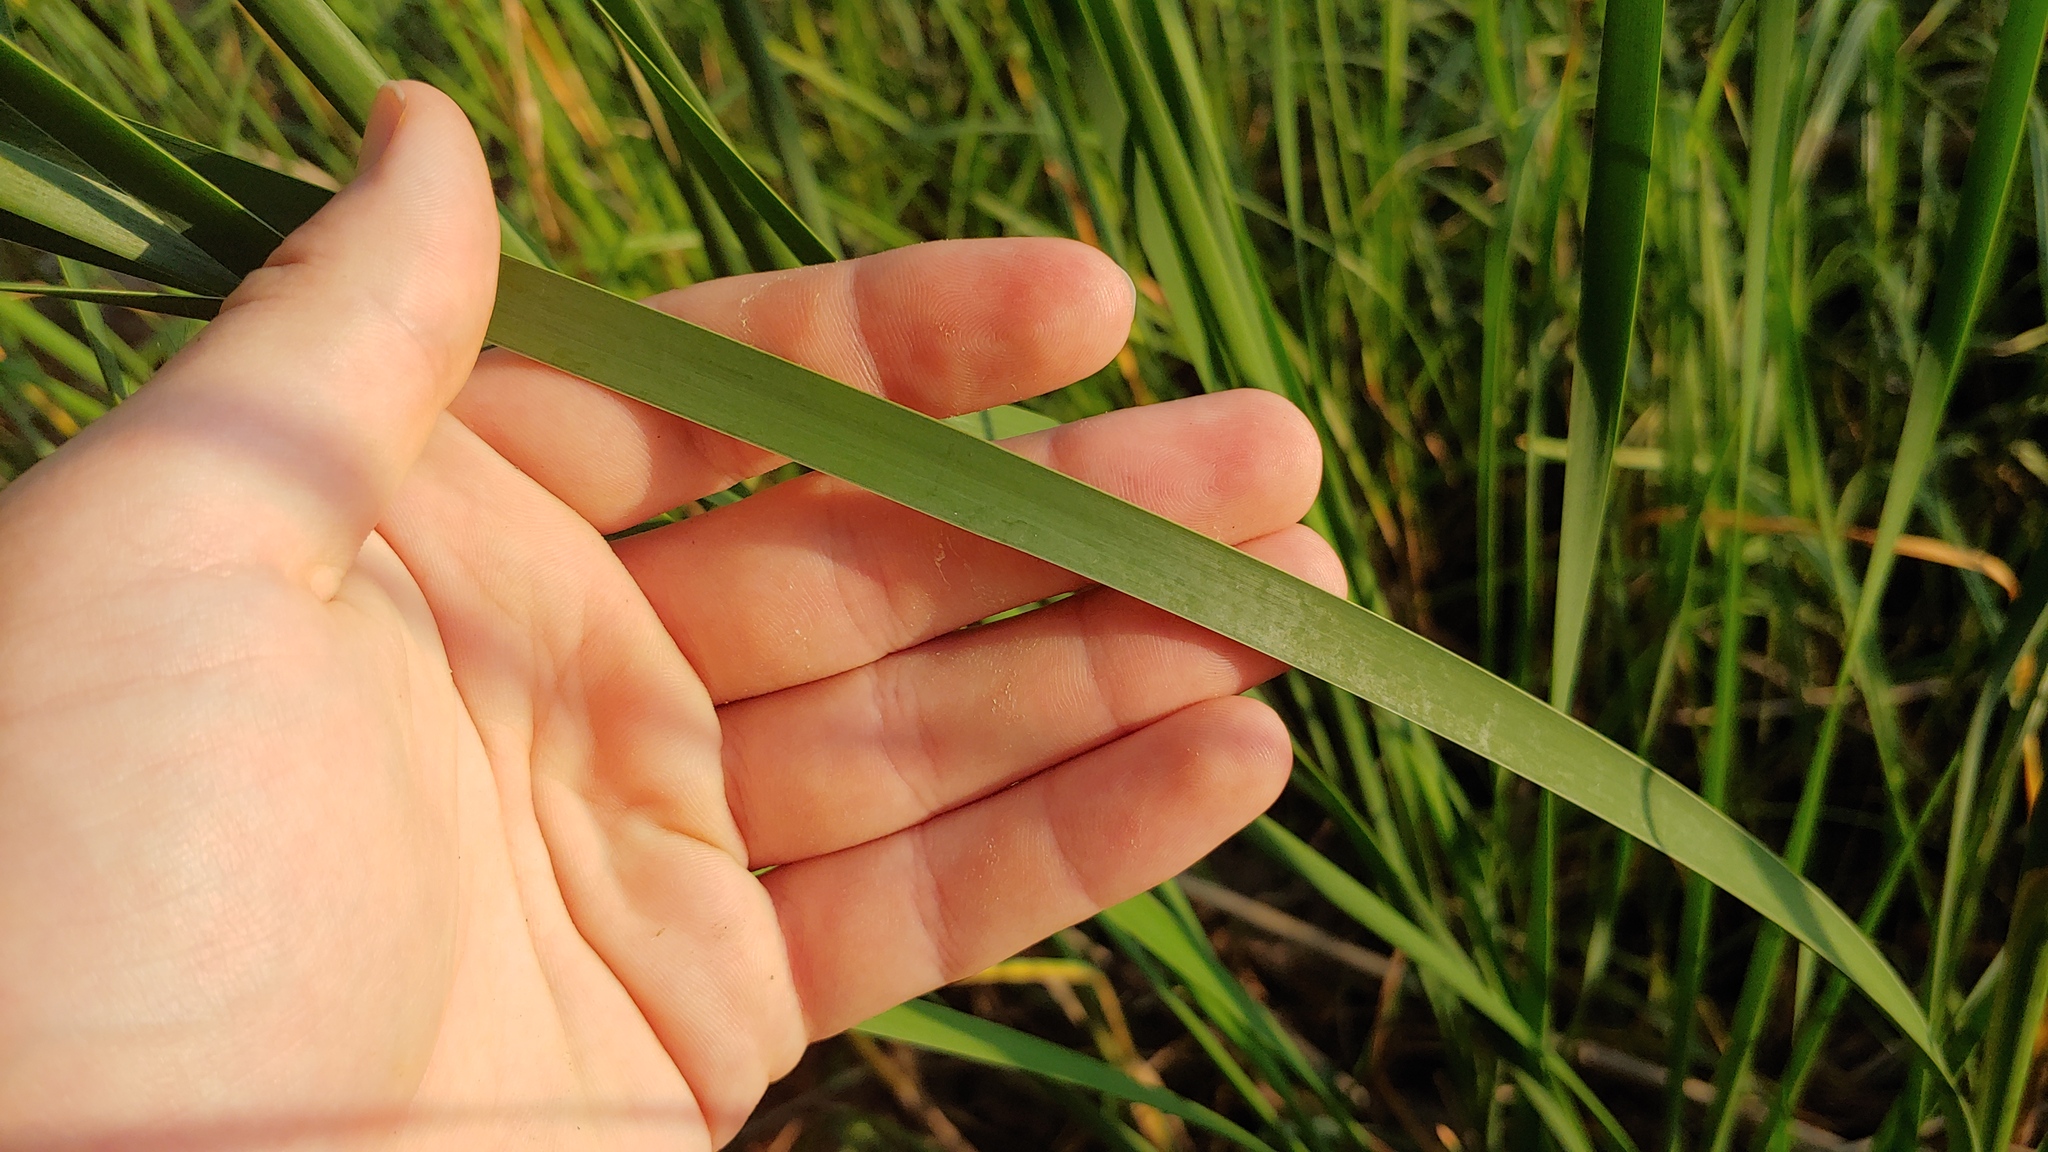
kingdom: Plantae
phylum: Tracheophyta
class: Liliopsida
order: Poales
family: Typhaceae
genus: Typha
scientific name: Typha angustifolia
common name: Lesser bulrush
